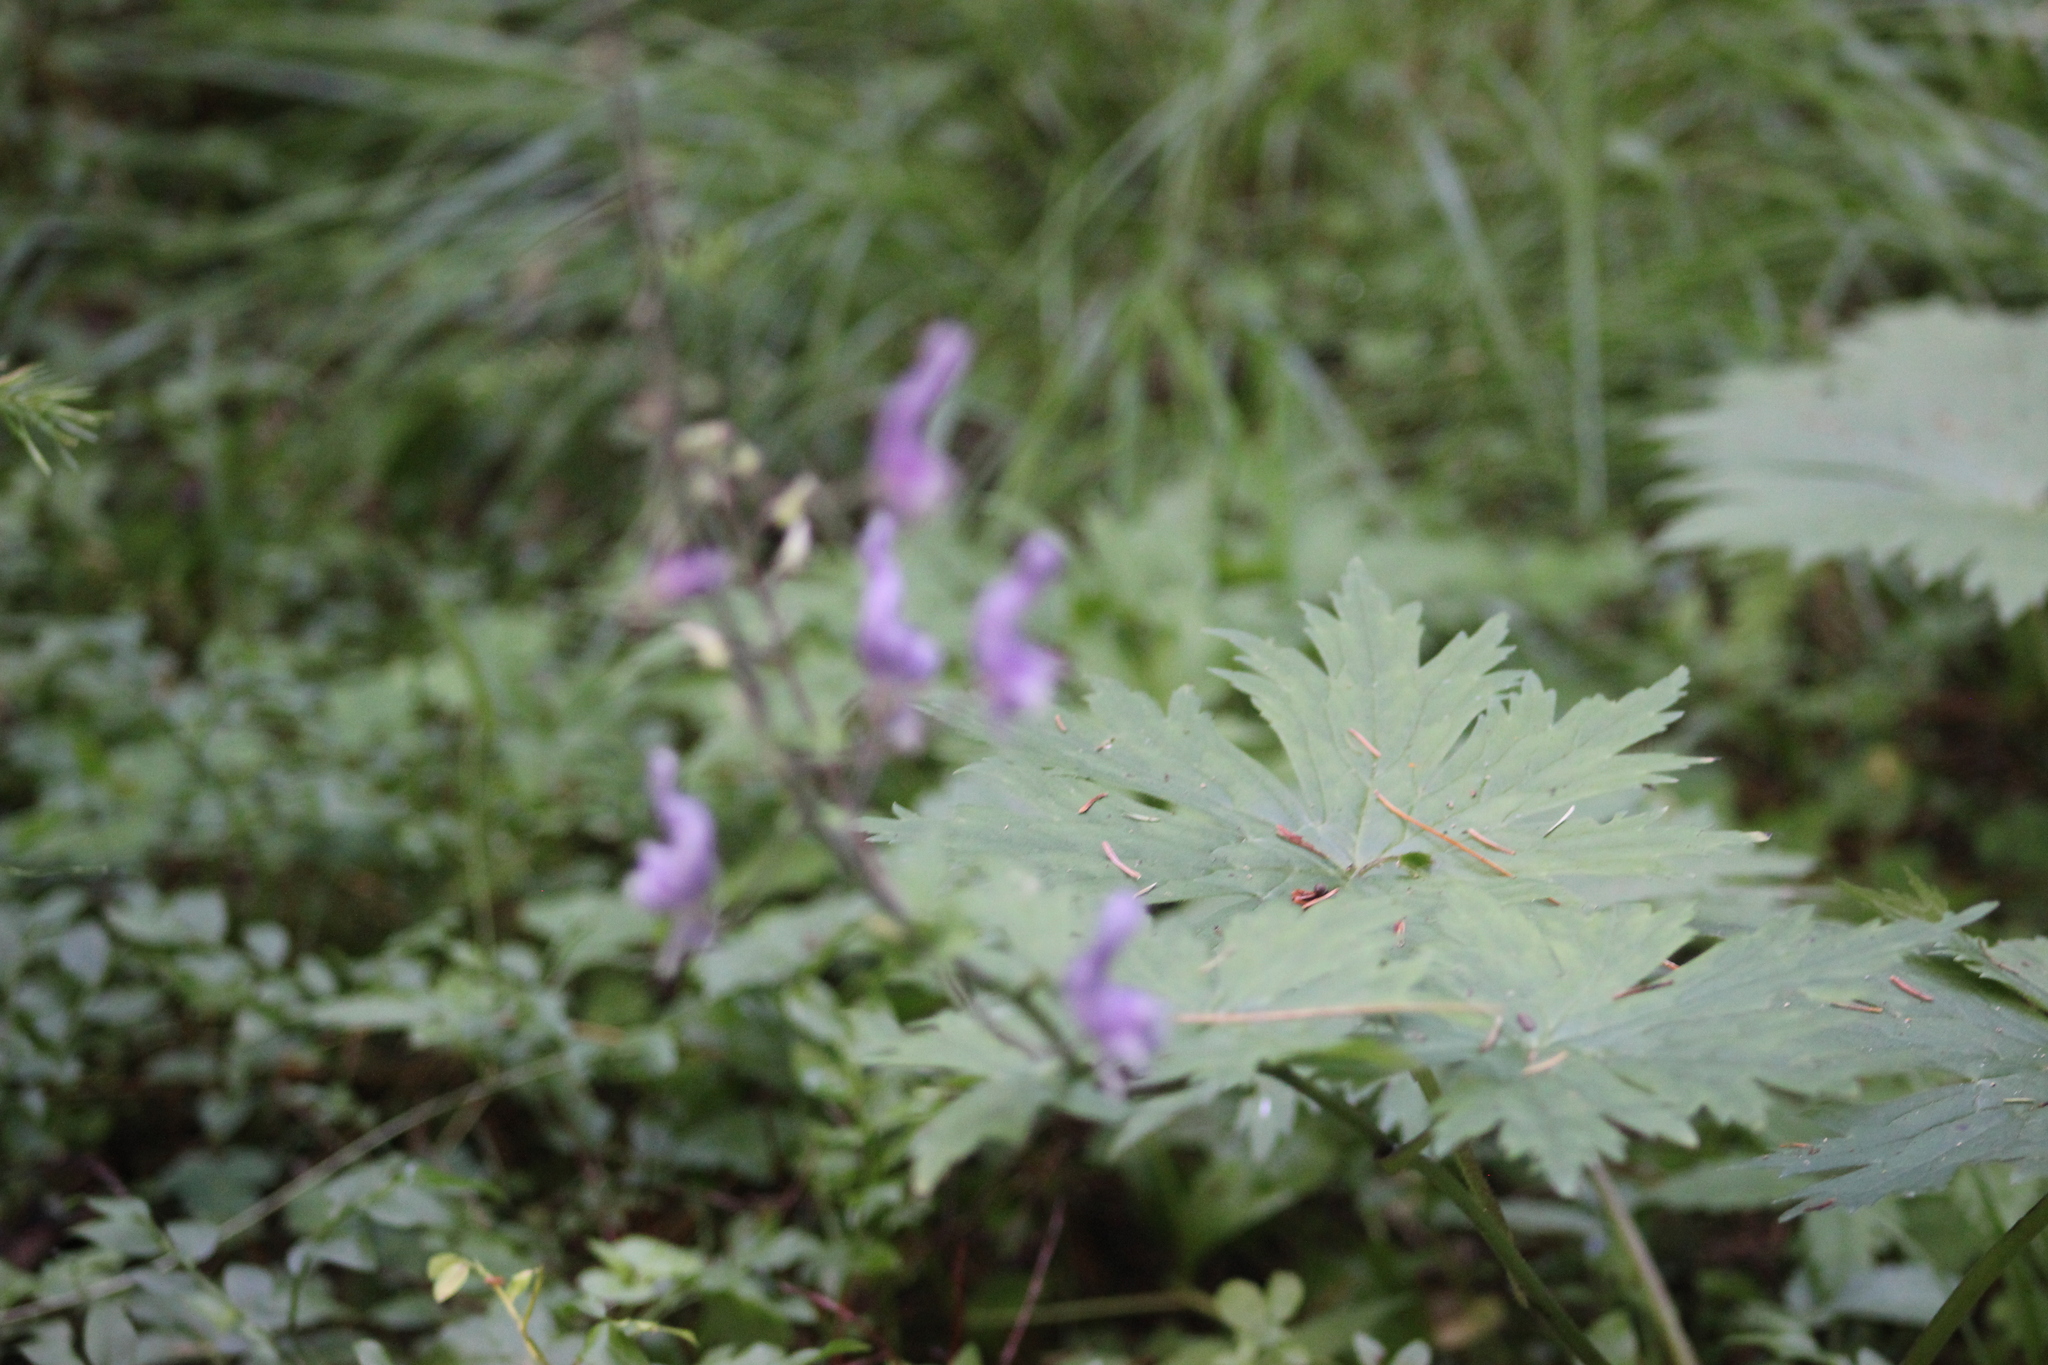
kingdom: Plantae
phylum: Tracheophyta
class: Magnoliopsida
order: Ranunculales
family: Ranunculaceae
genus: Aconitum
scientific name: Aconitum septentrionale
